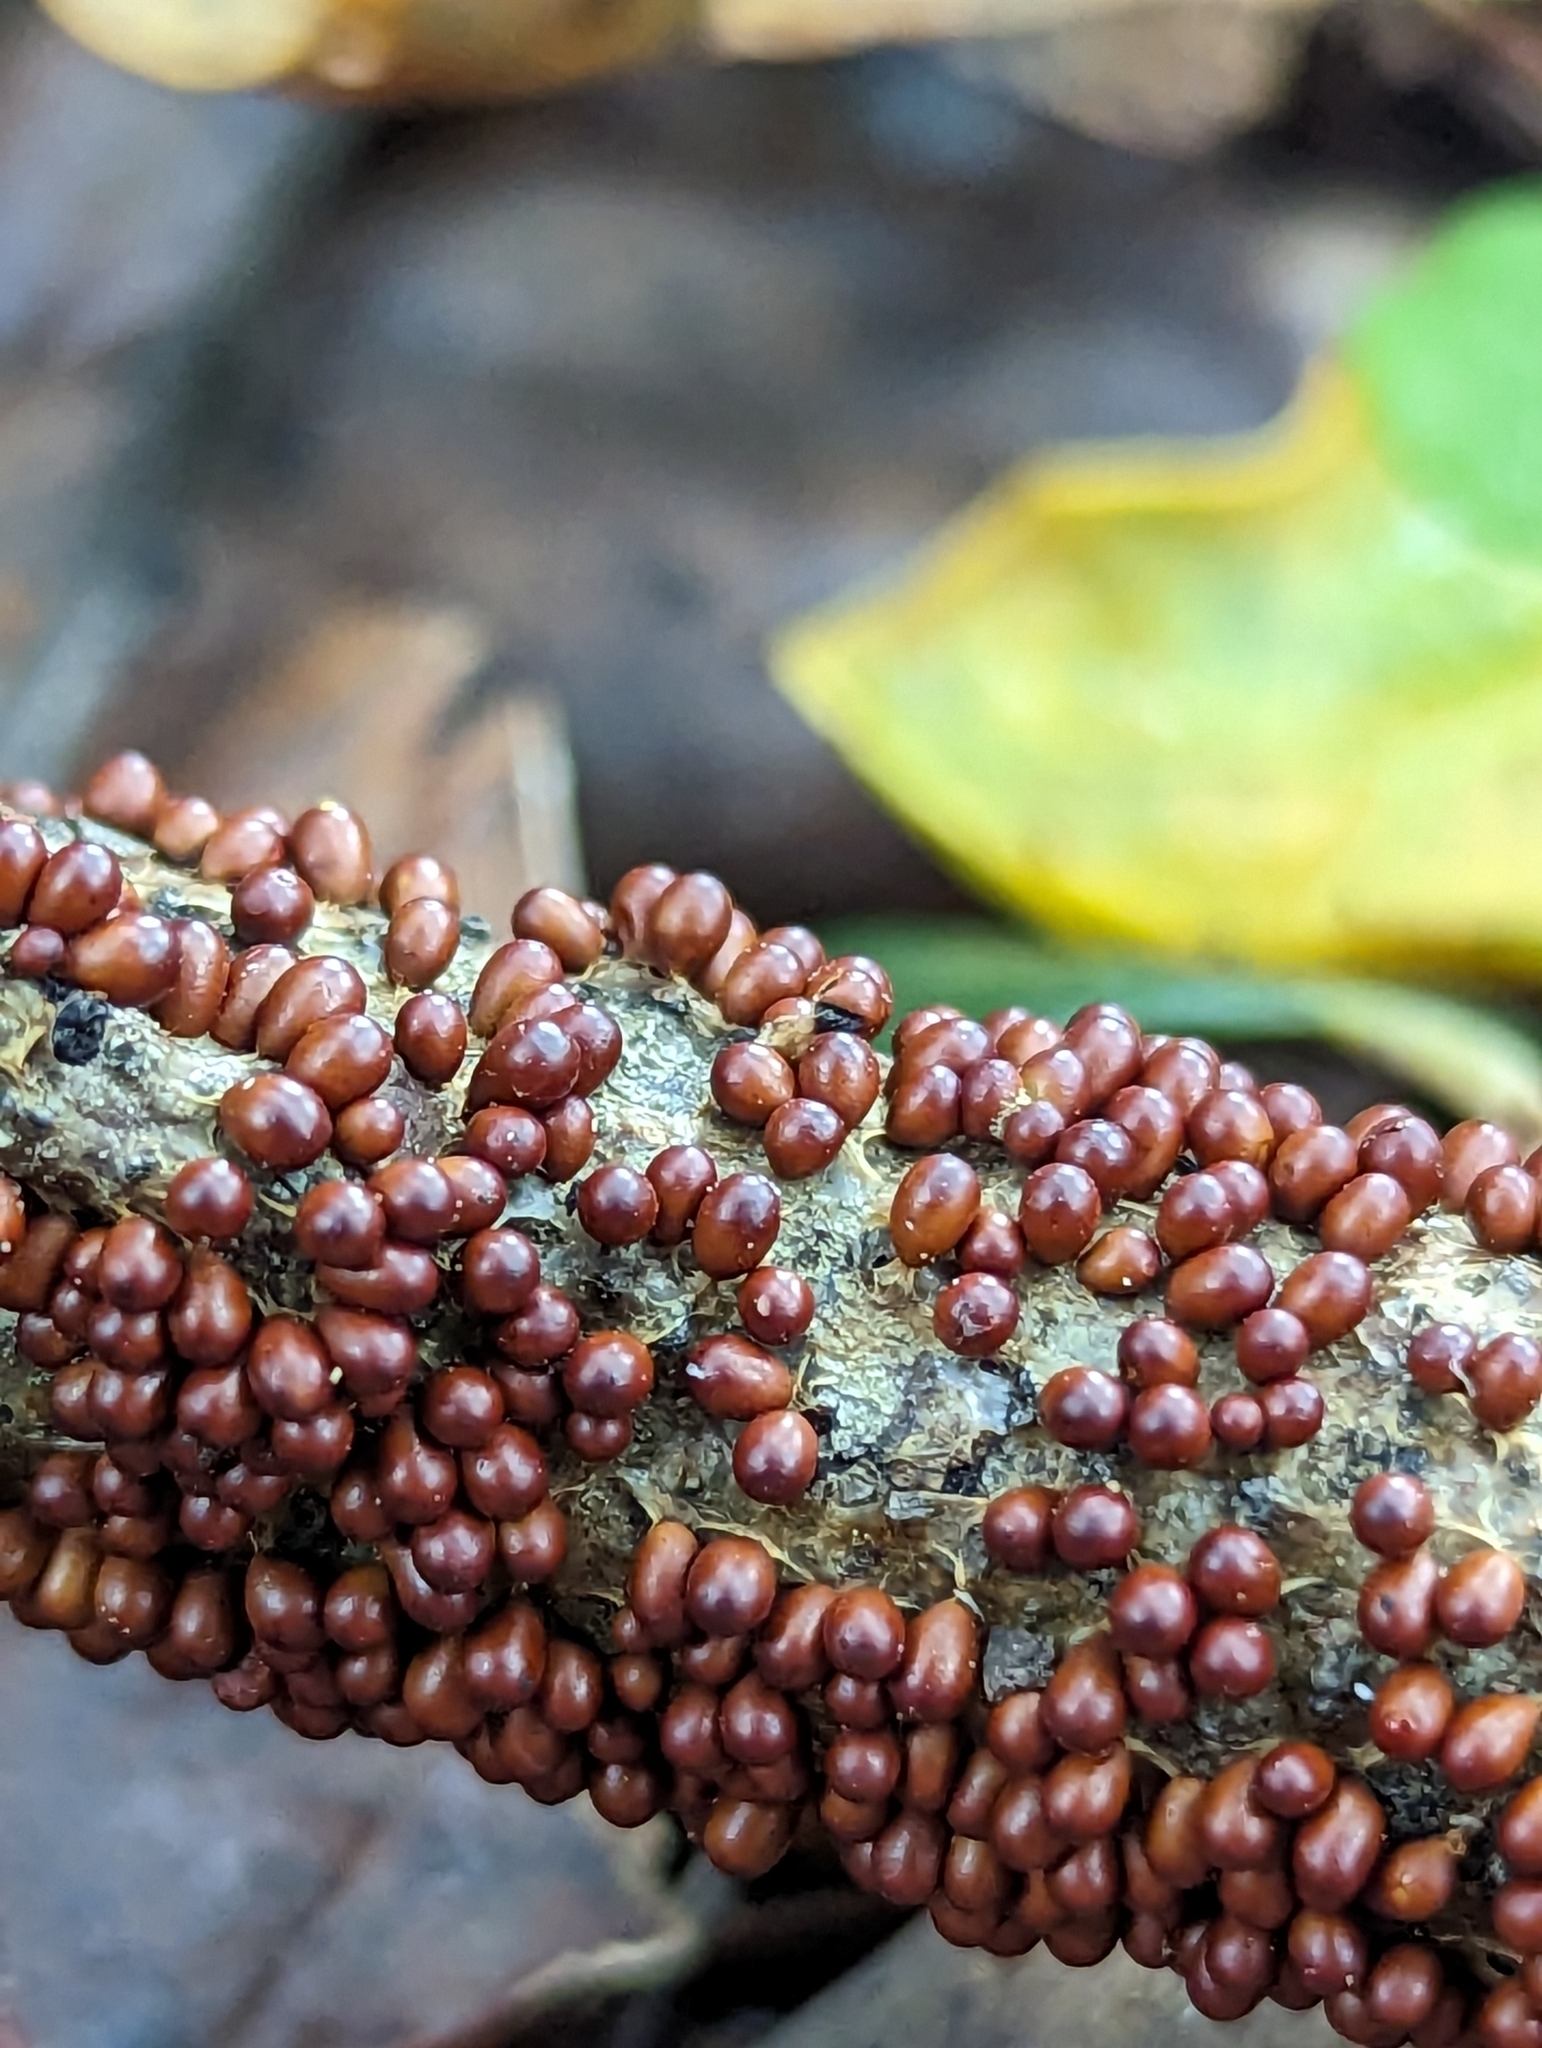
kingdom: Protozoa
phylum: Mycetozoa
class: Myxomycetes
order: Physarales
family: Physaraceae
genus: Leocarpus
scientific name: Leocarpus fragilis
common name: Insect-egg slime
